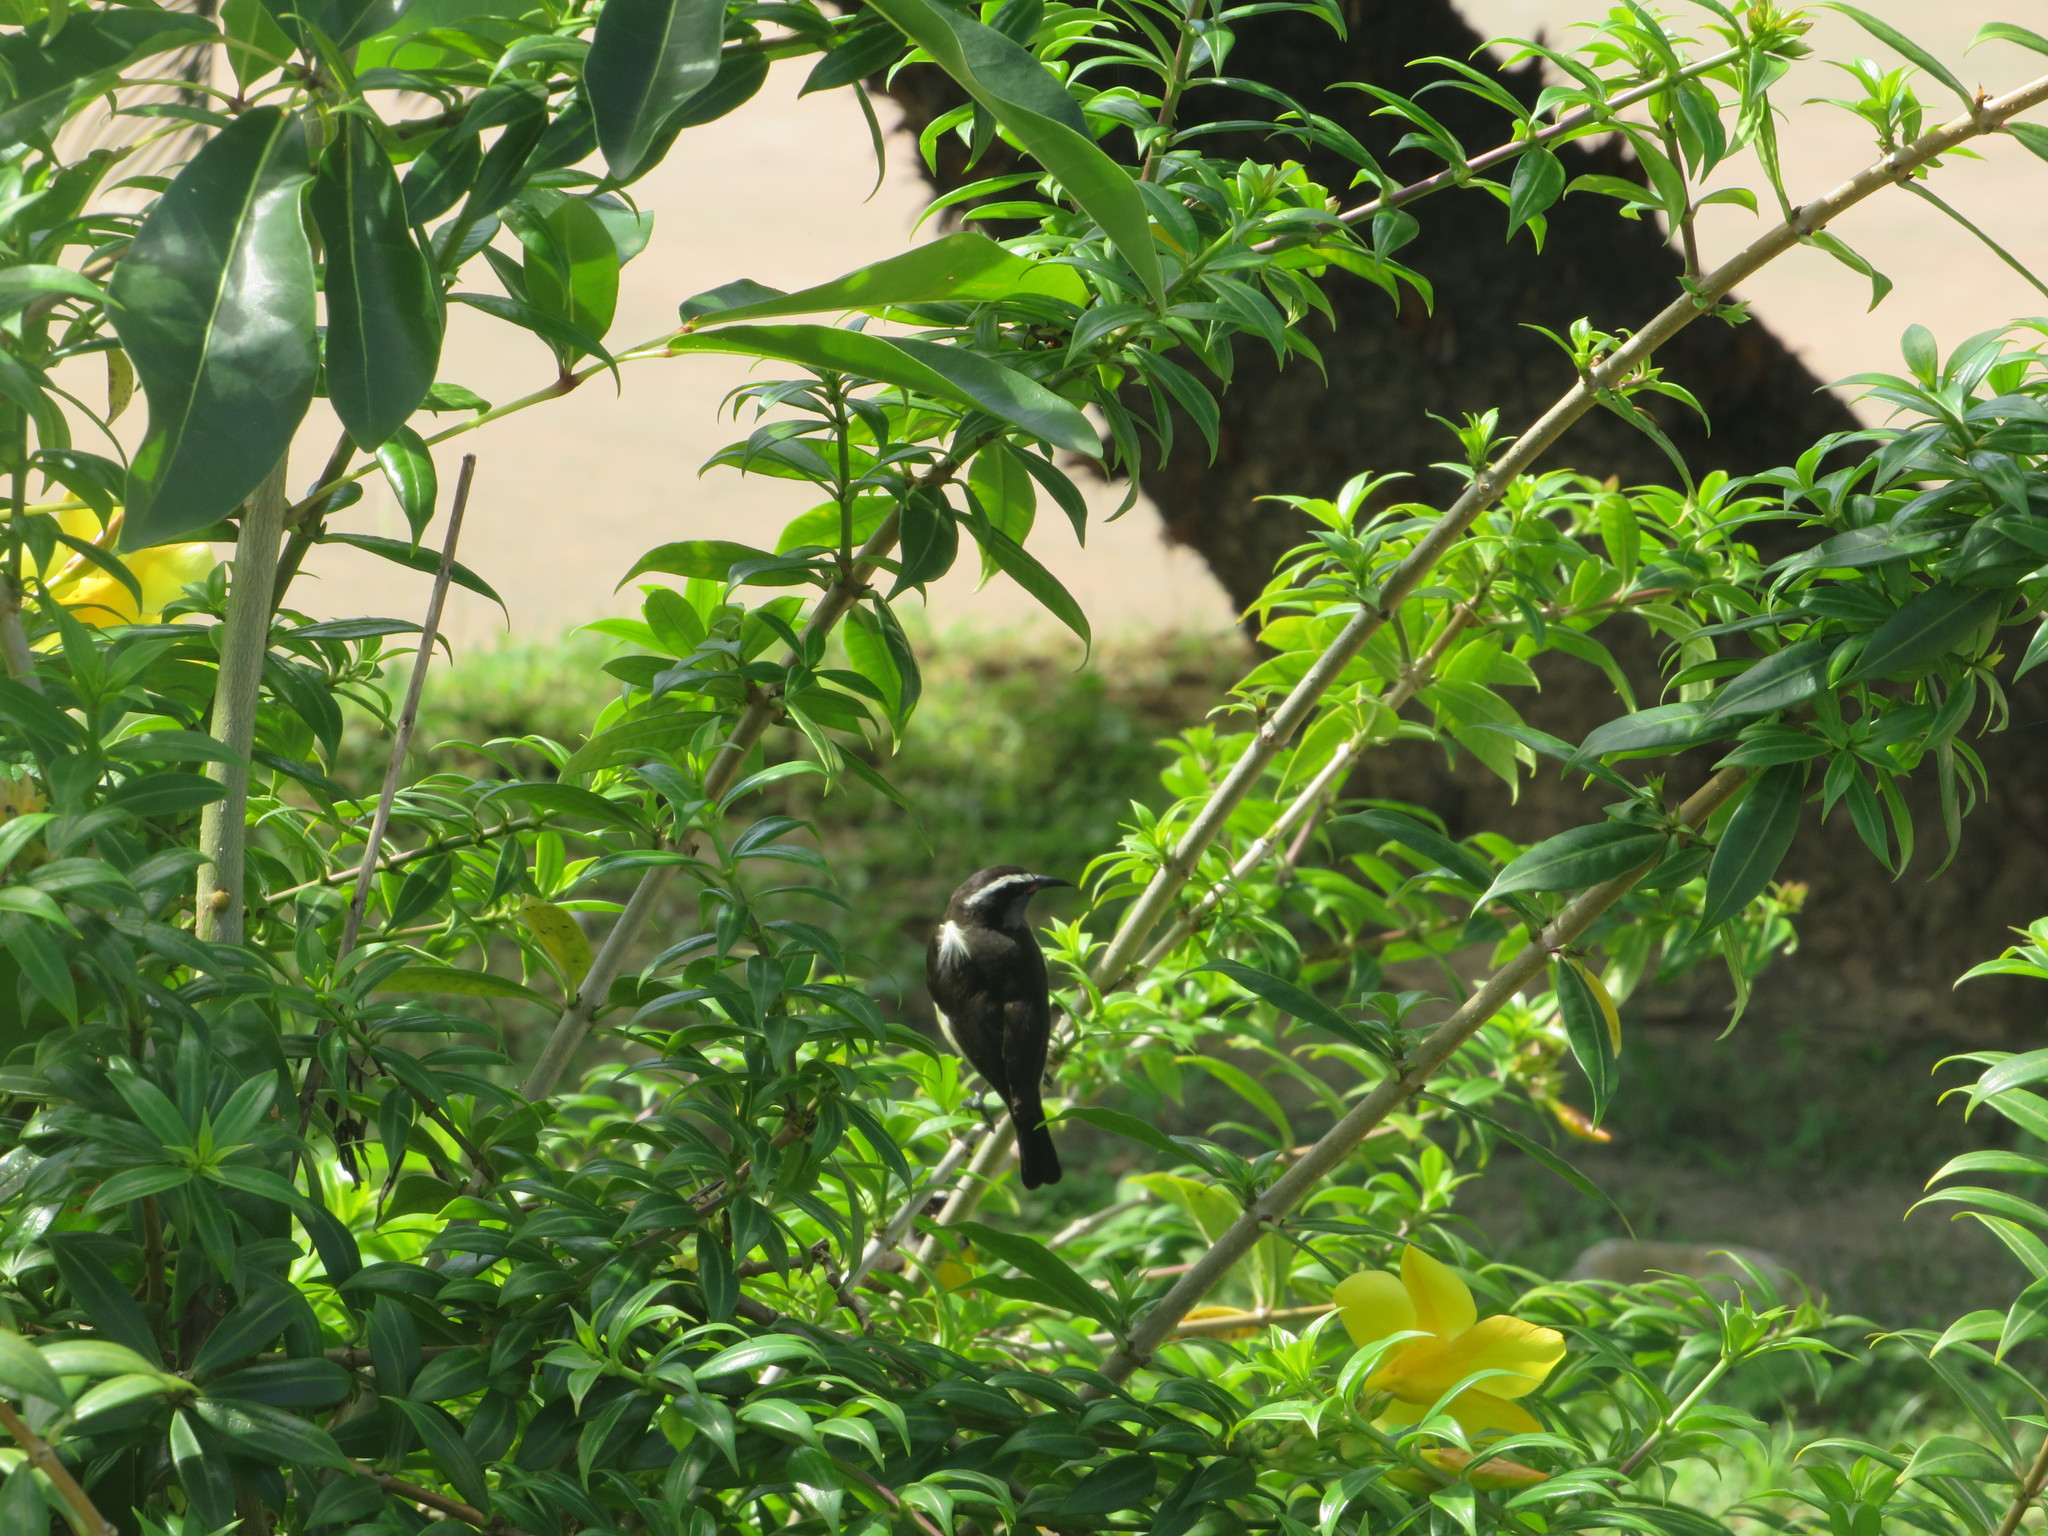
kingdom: Animalia
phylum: Chordata
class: Aves
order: Passeriformes
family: Thraupidae
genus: Coereba
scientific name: Coereba flaveola
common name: Bananaquit
